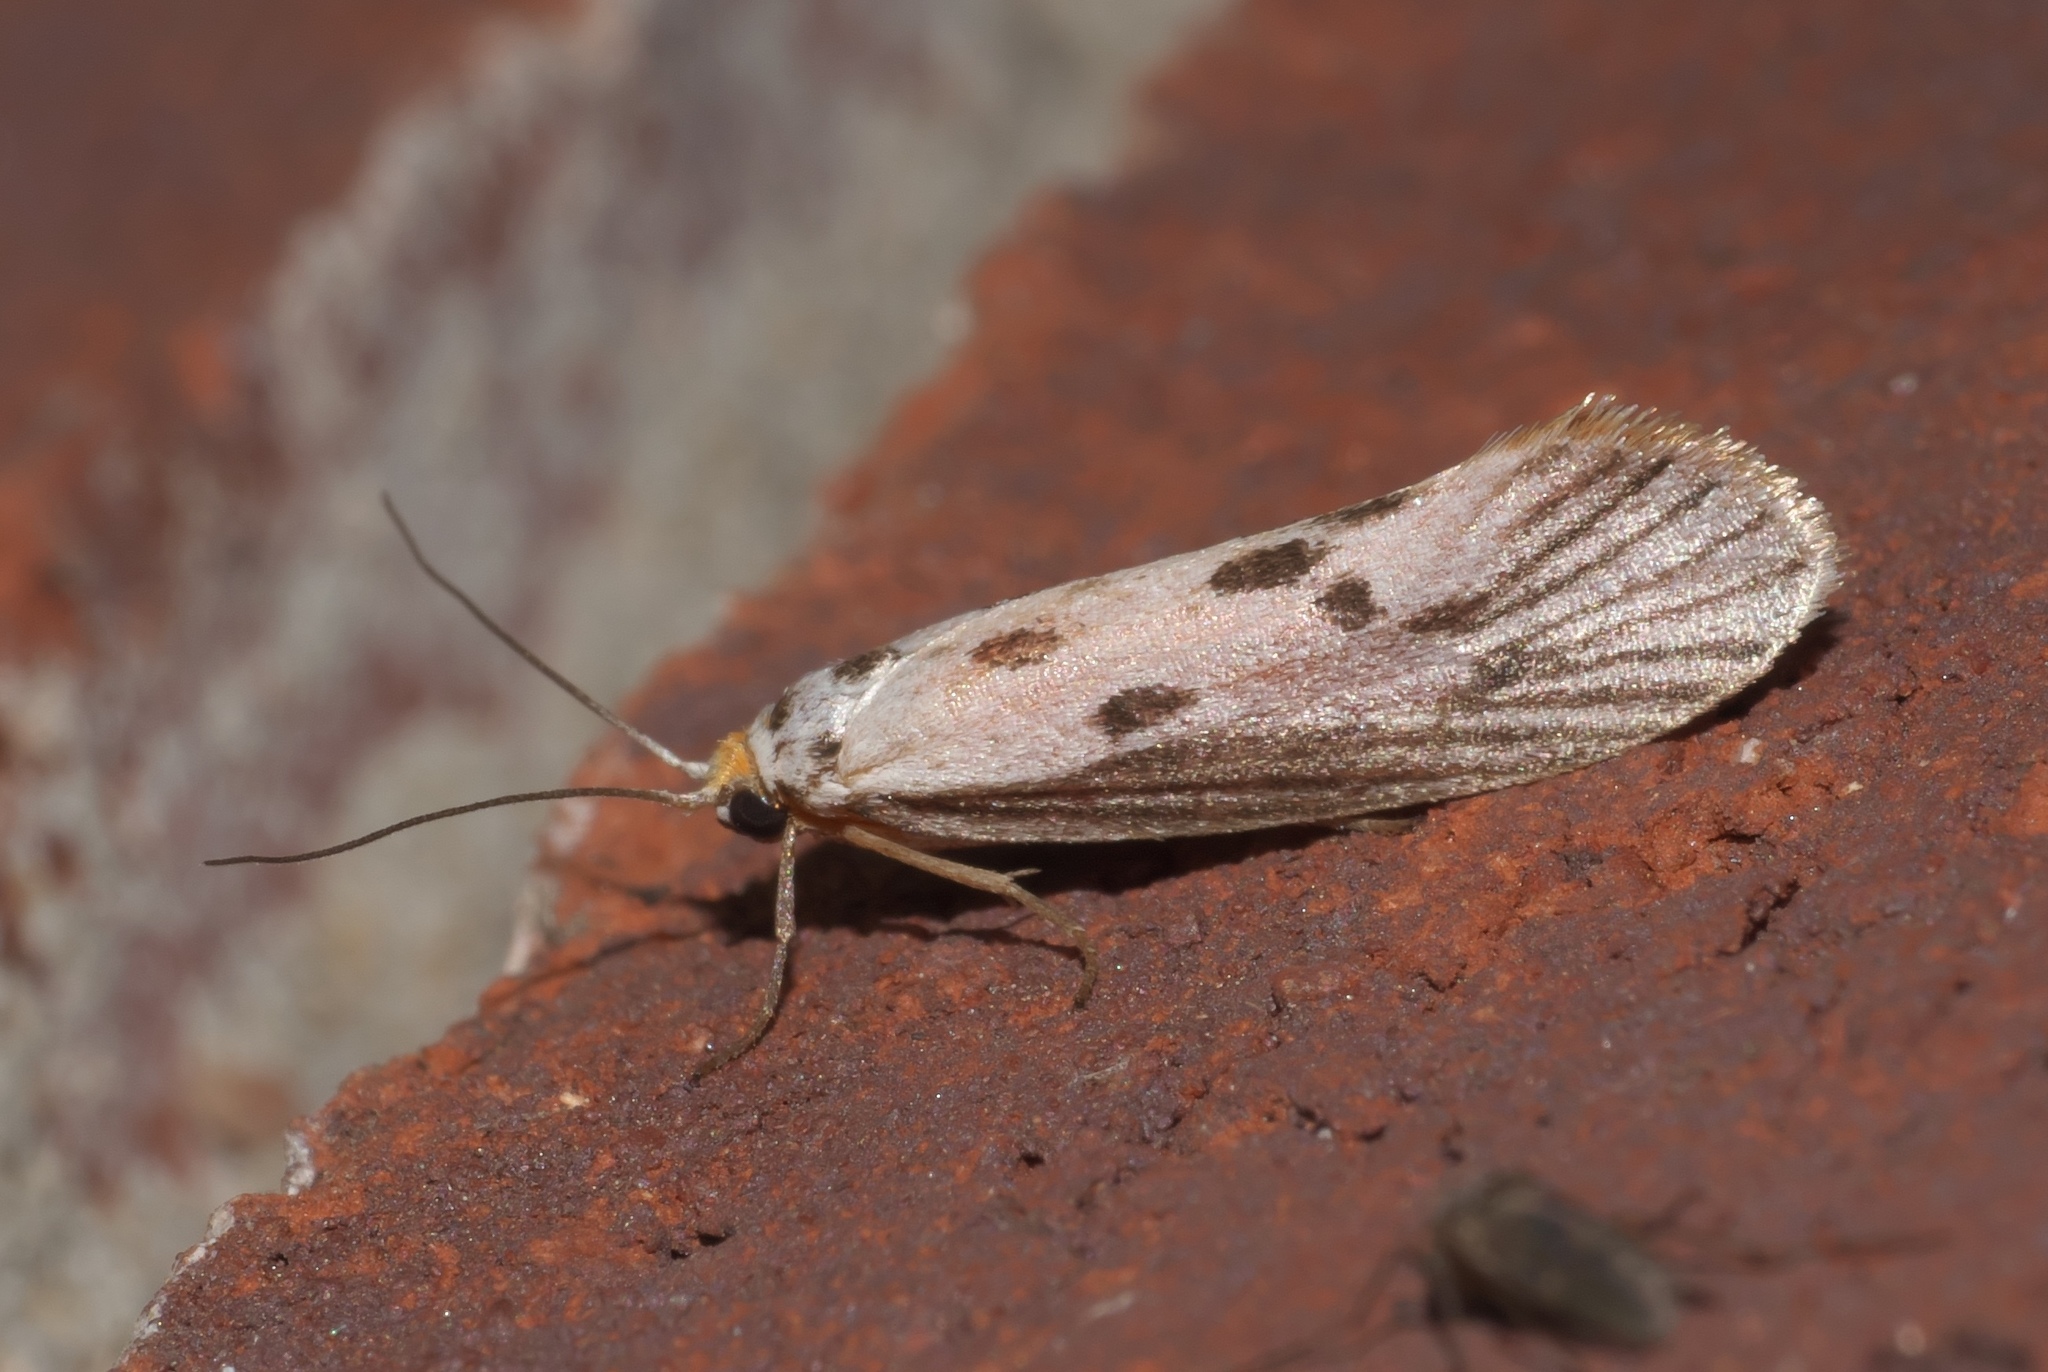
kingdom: Animalia
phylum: Arthropoda
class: Insecta
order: Lepidoptera
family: Lacturidae
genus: Lactura
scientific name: Lactura
